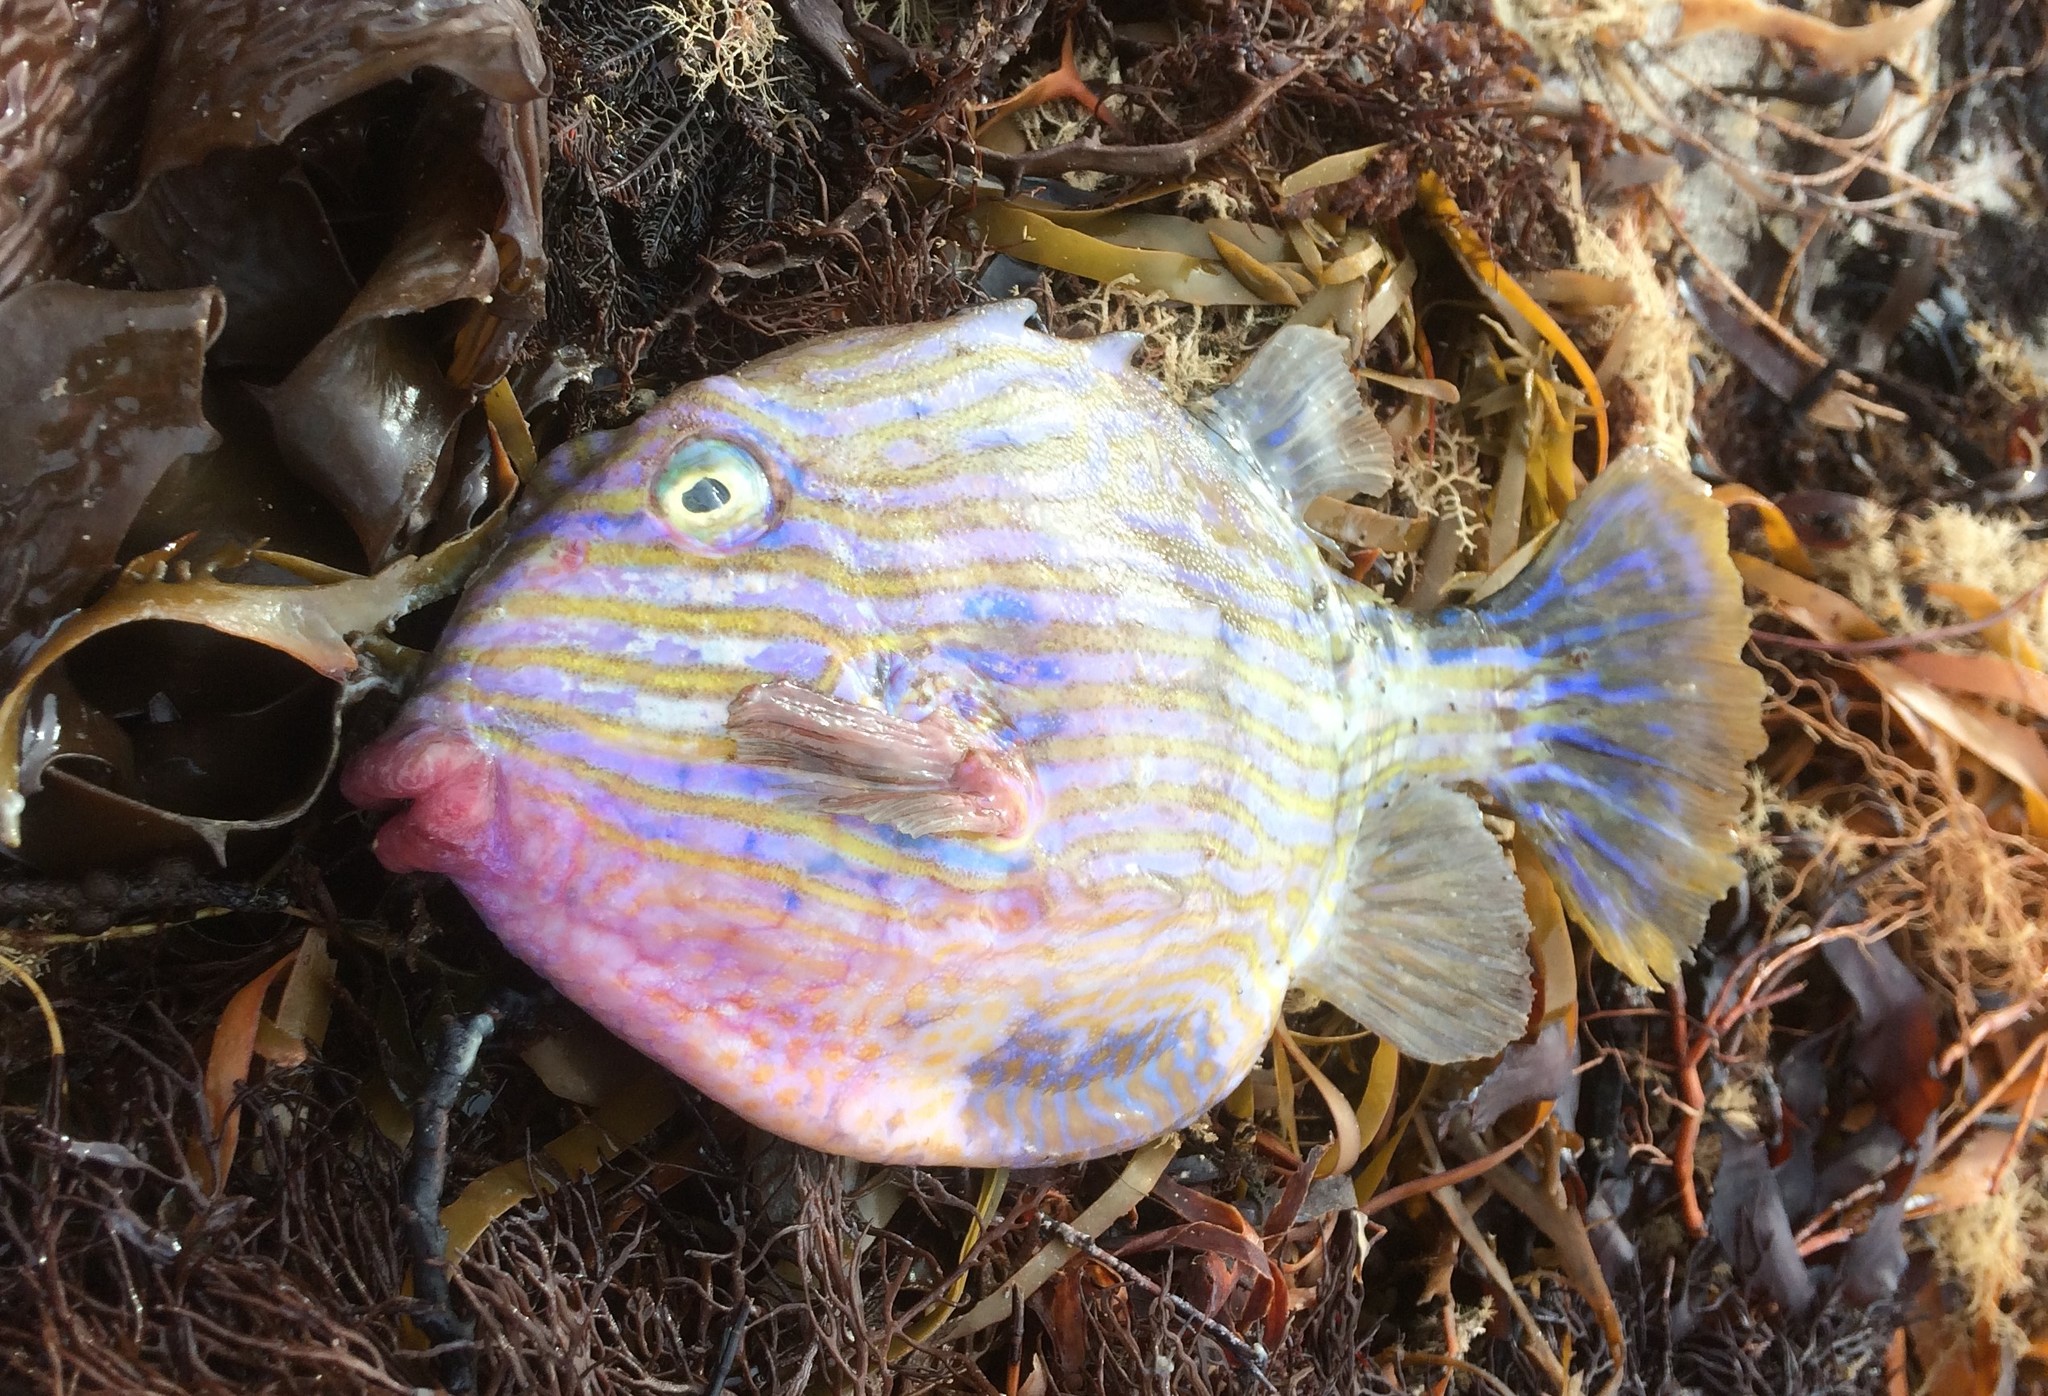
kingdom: Animalia
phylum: Chordata
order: Tetraodontiformes
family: Aracanidae
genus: Aracana
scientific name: Aracana aurita
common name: Shaw’s cowfish
